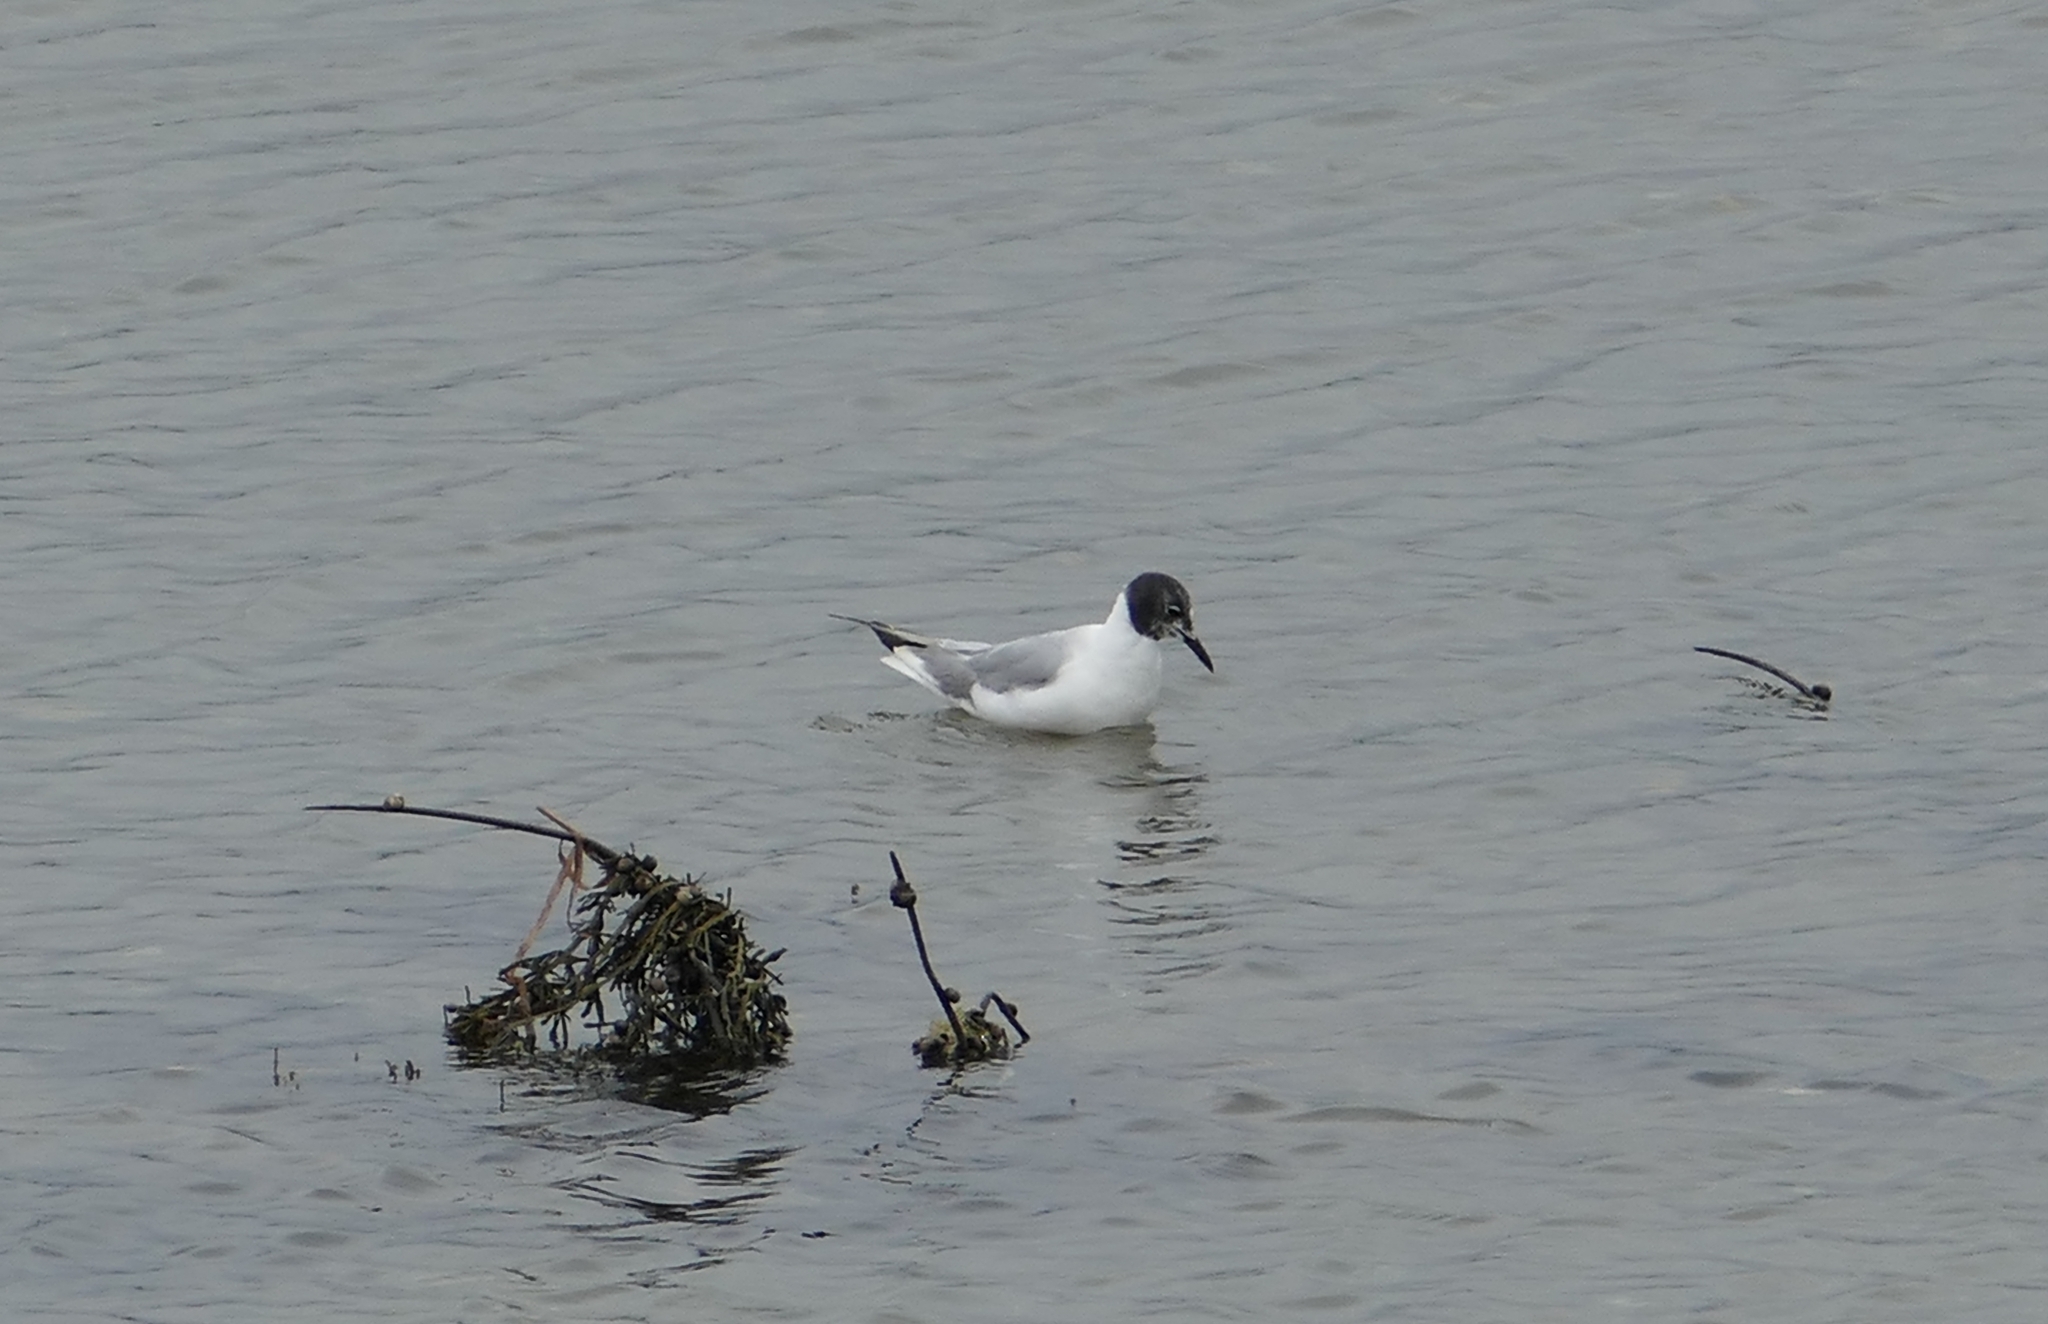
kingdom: Animalia
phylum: Chordata
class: Aves
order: Charadriiformes
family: Laridae
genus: Chroicocephalus
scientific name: Chroicocephalus philadelphia
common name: Bonaparte's gull
